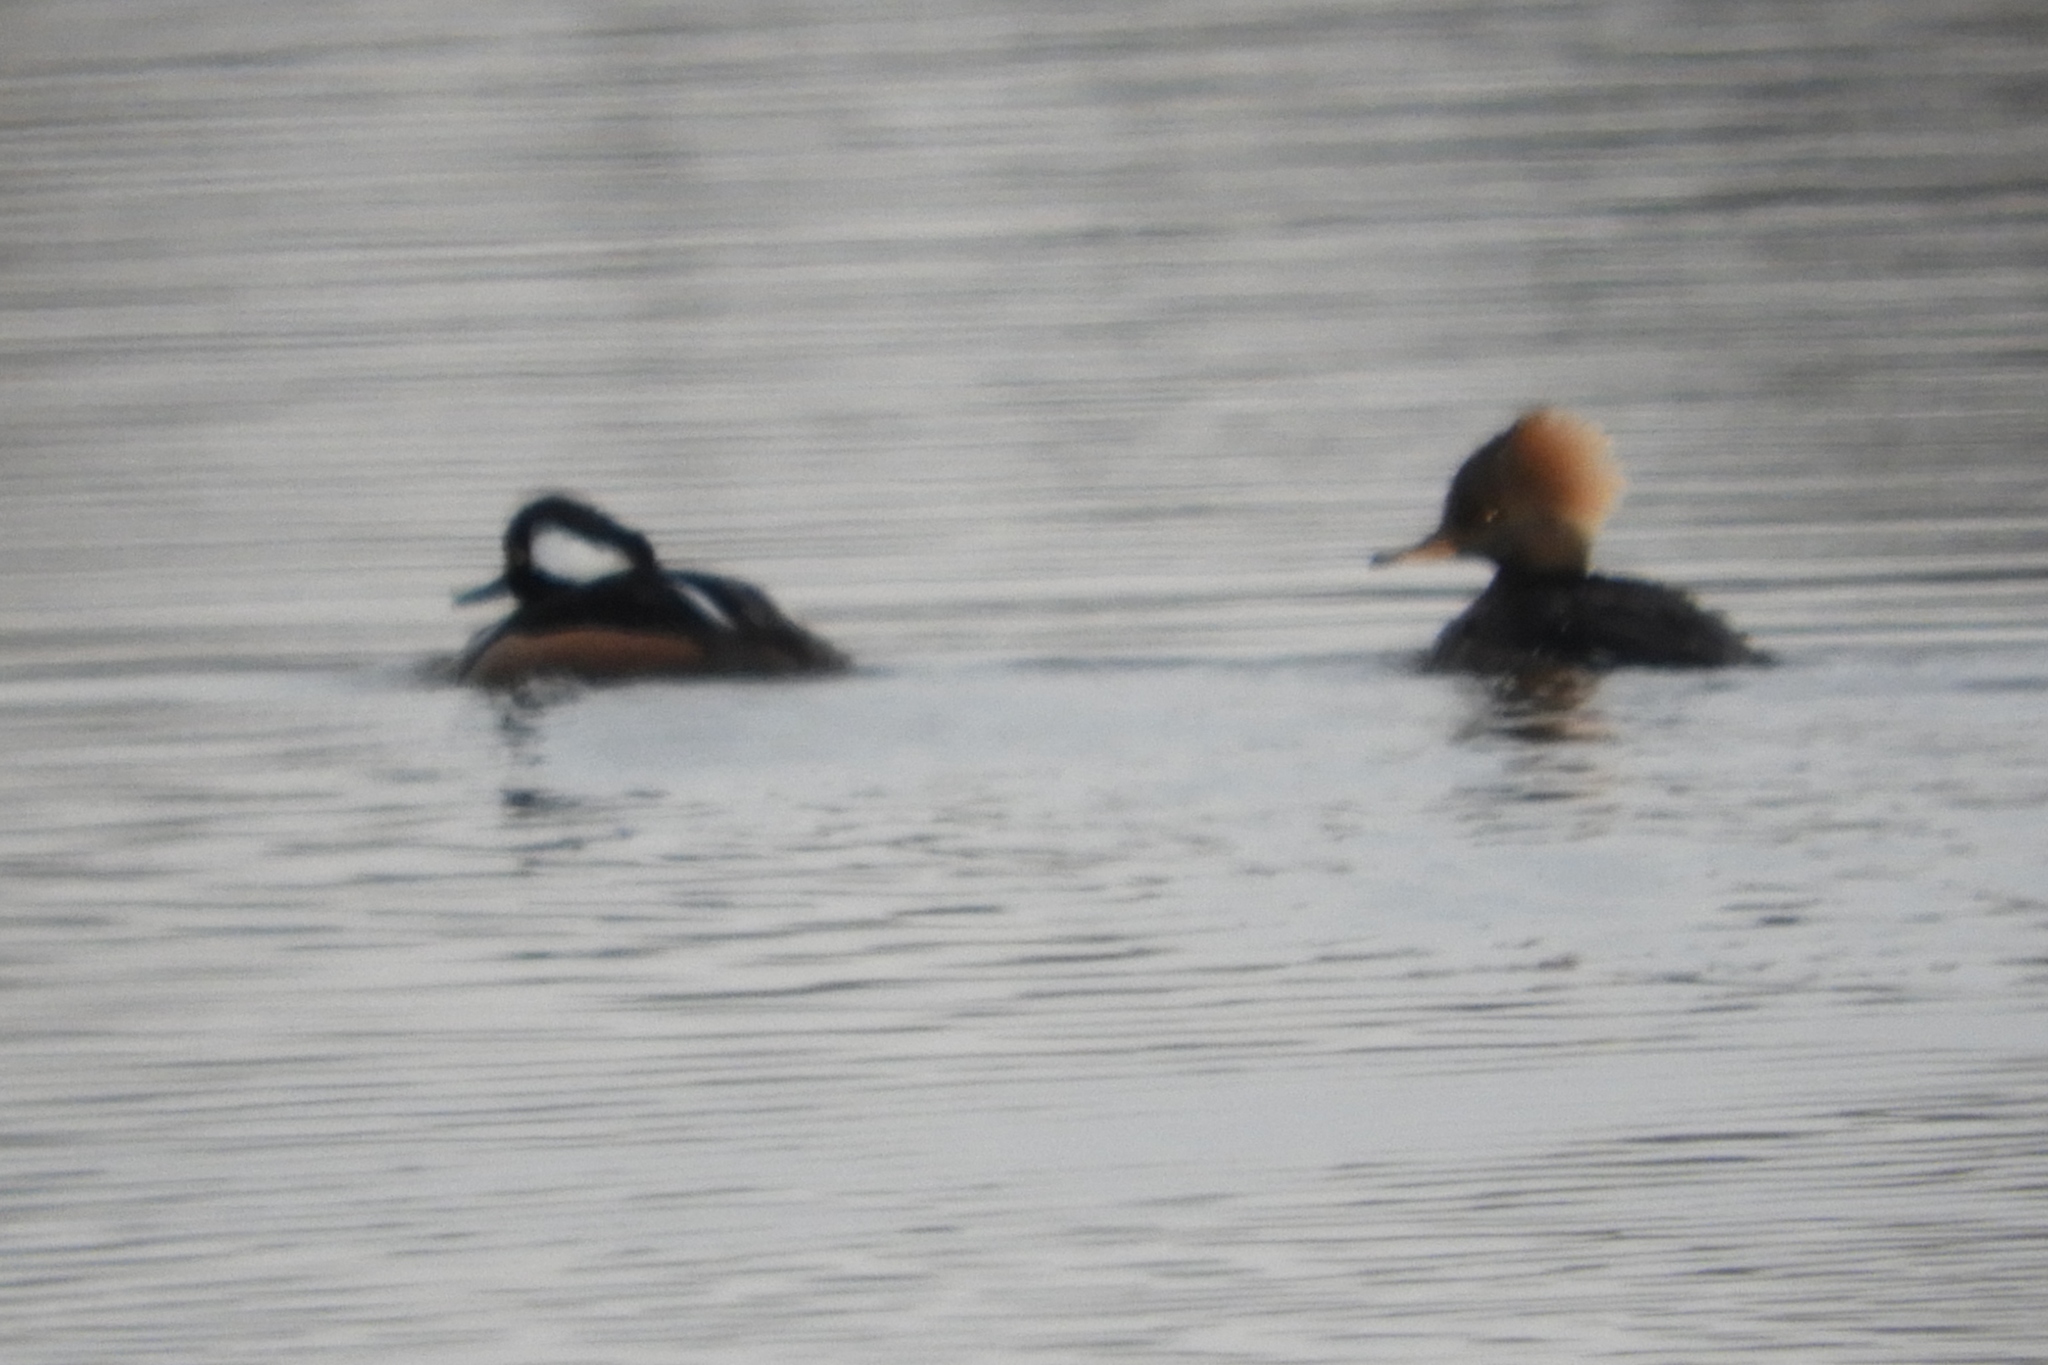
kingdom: Animalia
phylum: Chordata
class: Aves
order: Anseriformes
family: Anatidae
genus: Lophodytes
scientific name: Lophodytes cucullatus
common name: Hooded merganser
